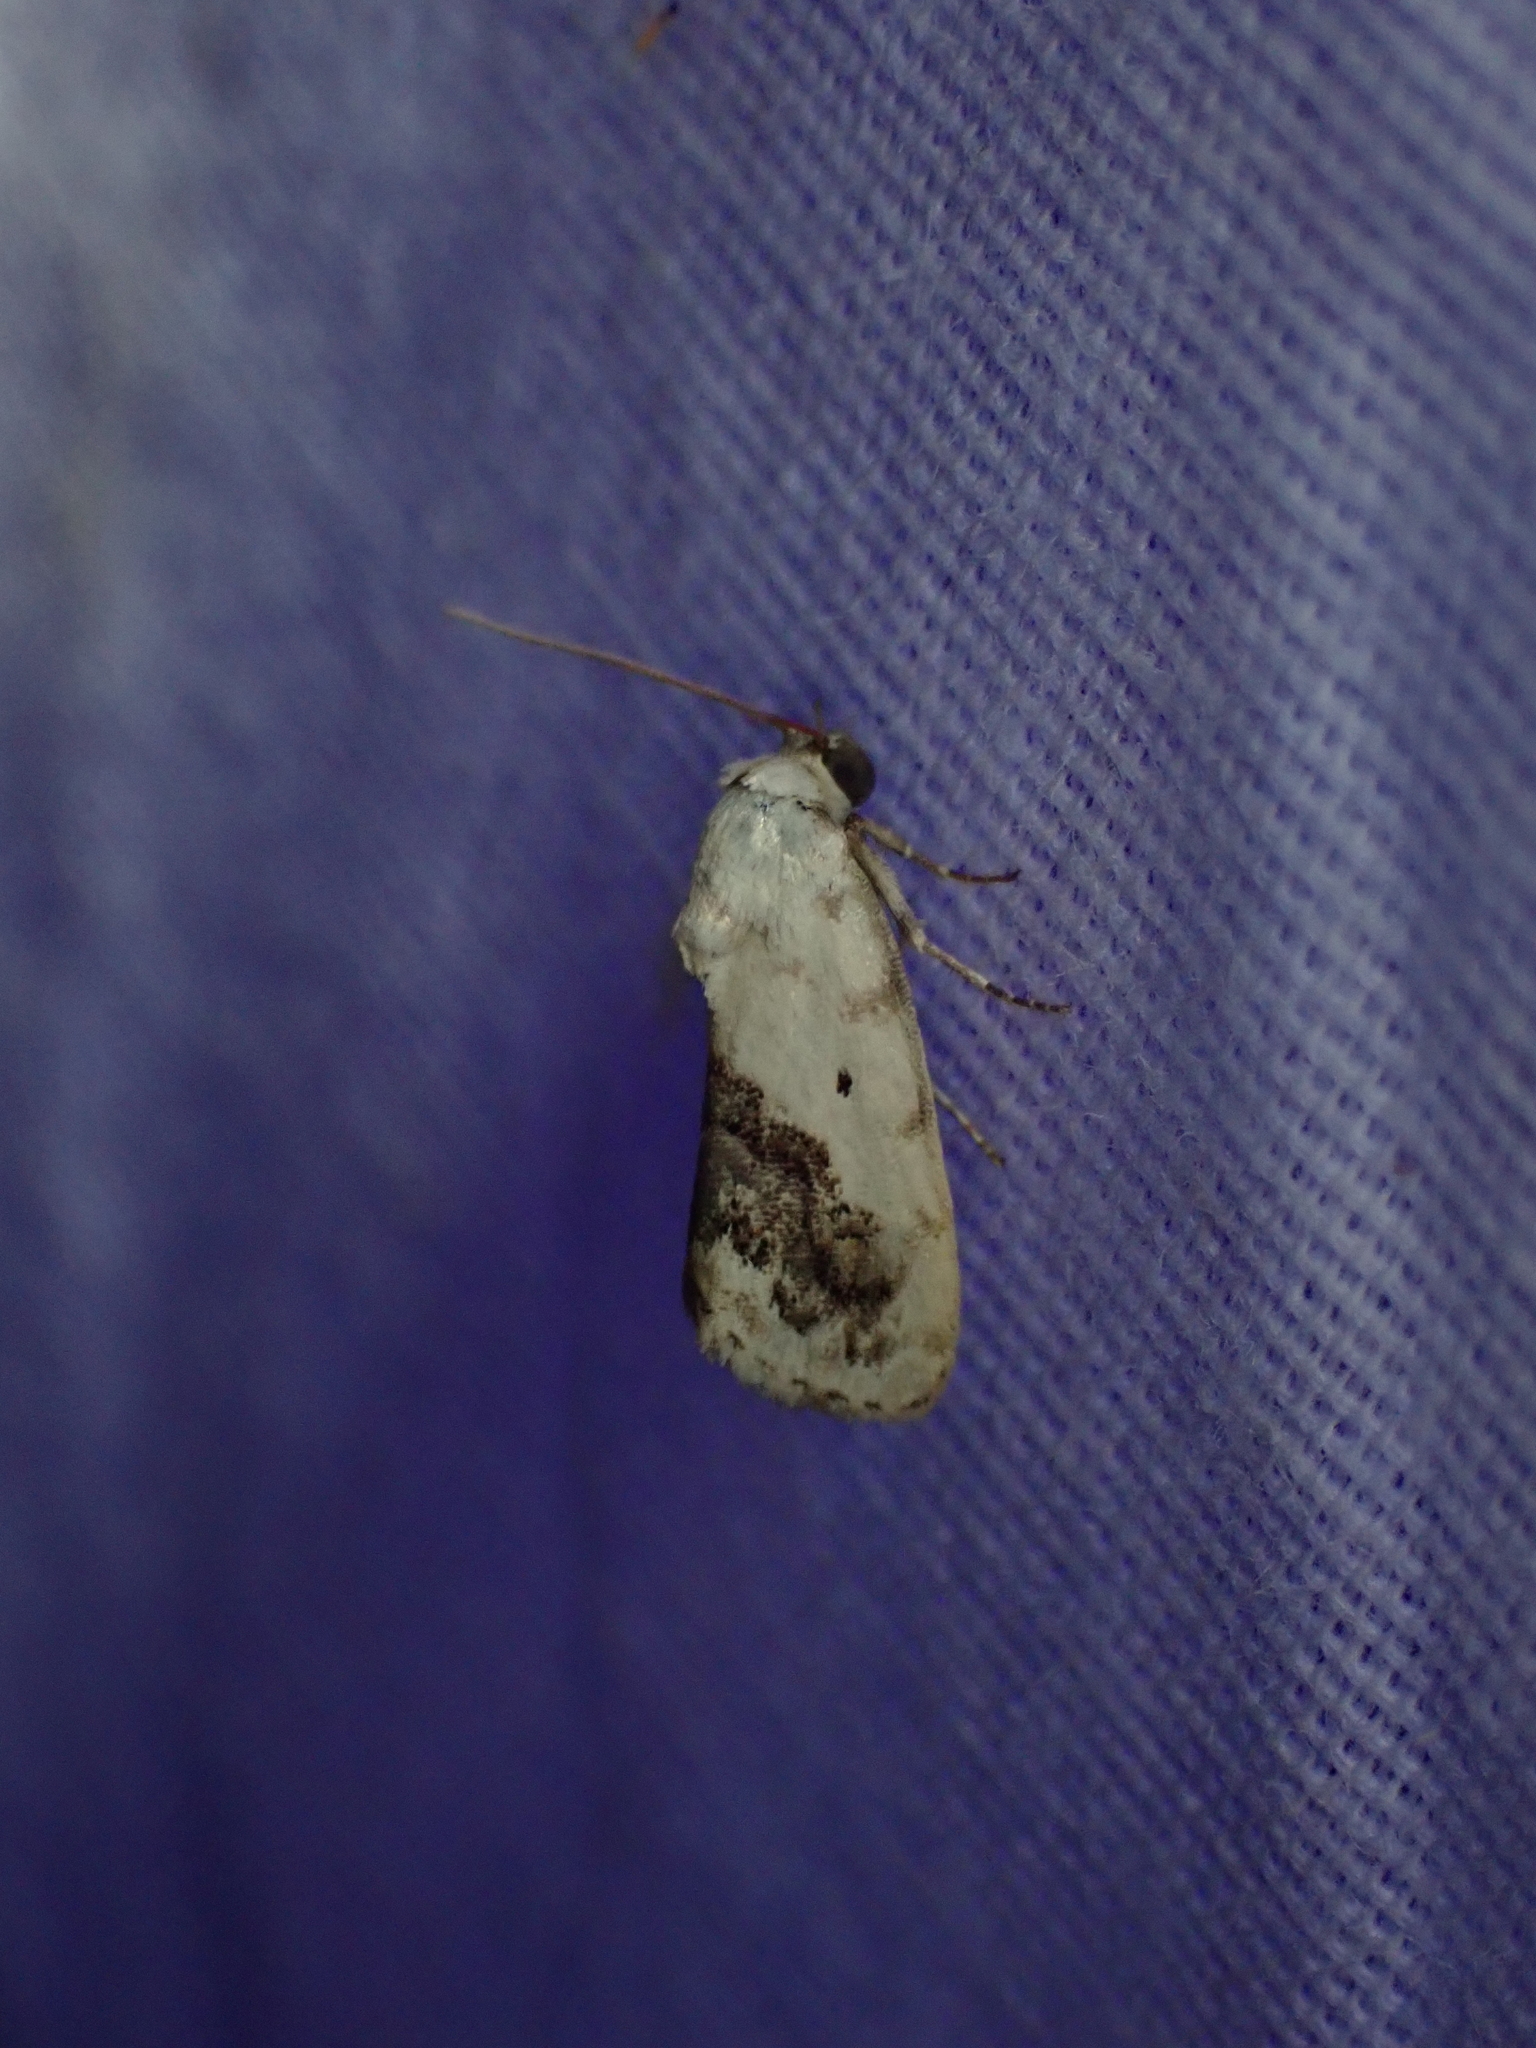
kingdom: Animalia
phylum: Arthropoda
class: Insecta
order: Lepidoptera
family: Noctuidae
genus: Acontia
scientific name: Acontia erastrioides
